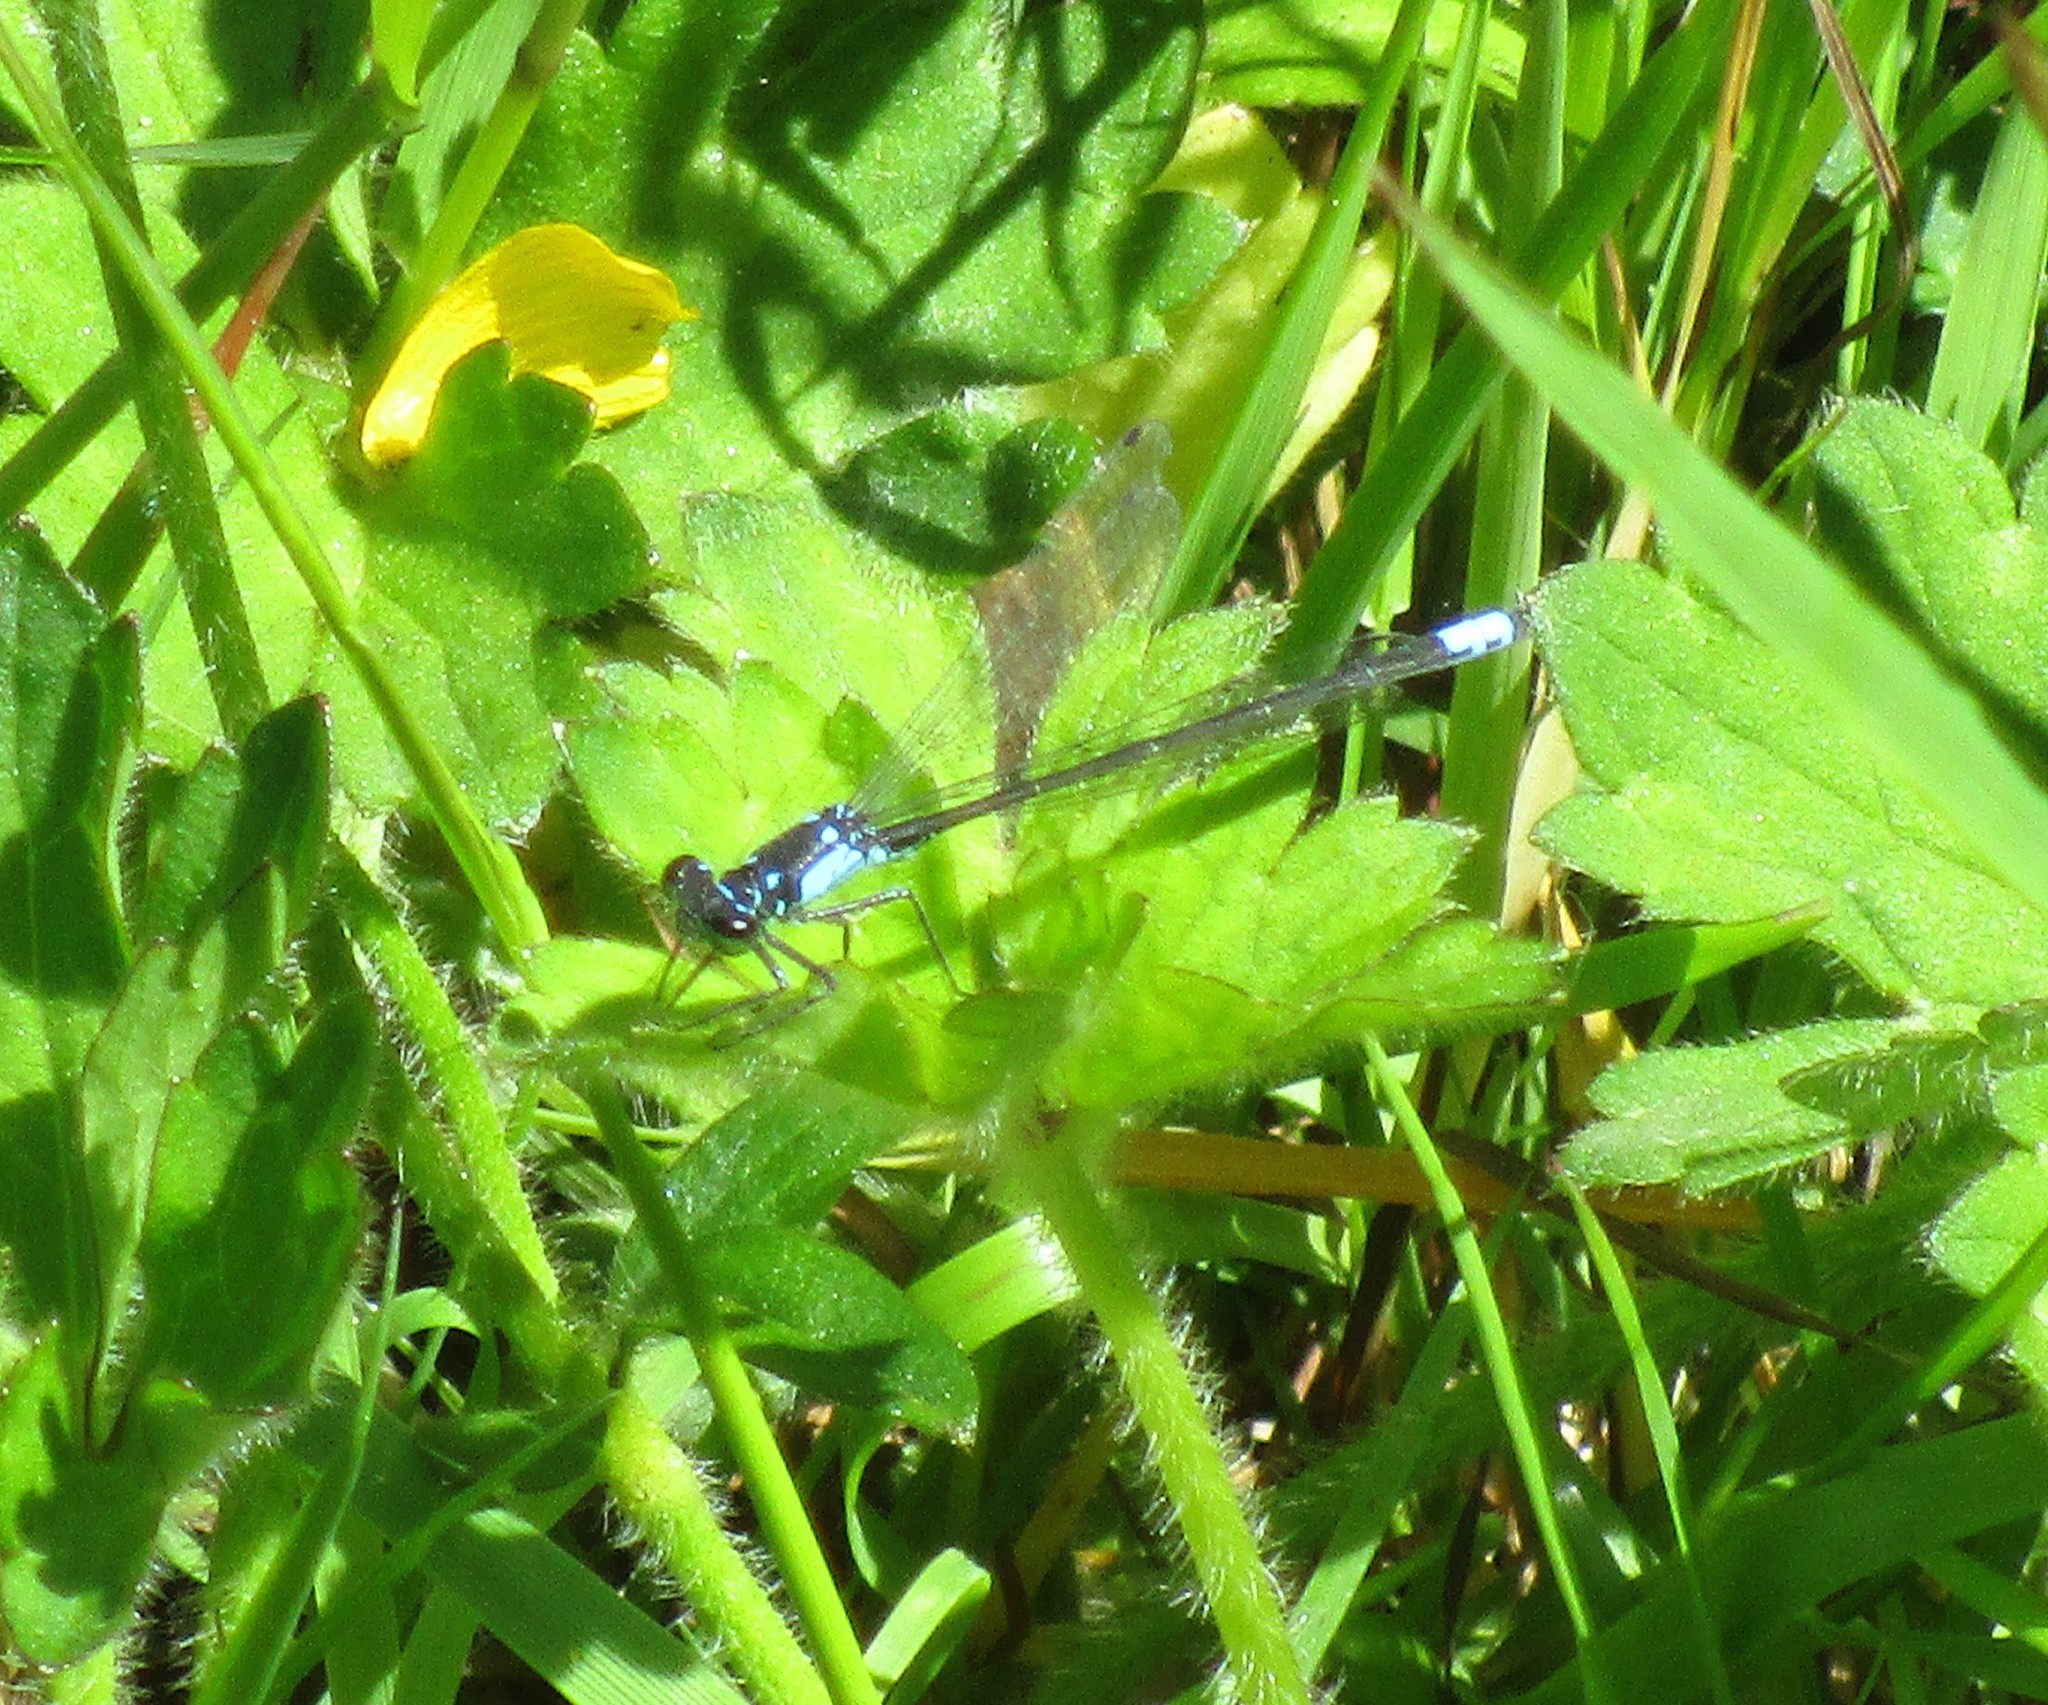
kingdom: Animalia
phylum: Arthropoda
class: Insecta
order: Odonata
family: Coenagrionidae
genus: Ischnura
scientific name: Ischnura cervula
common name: Pacific forktail
